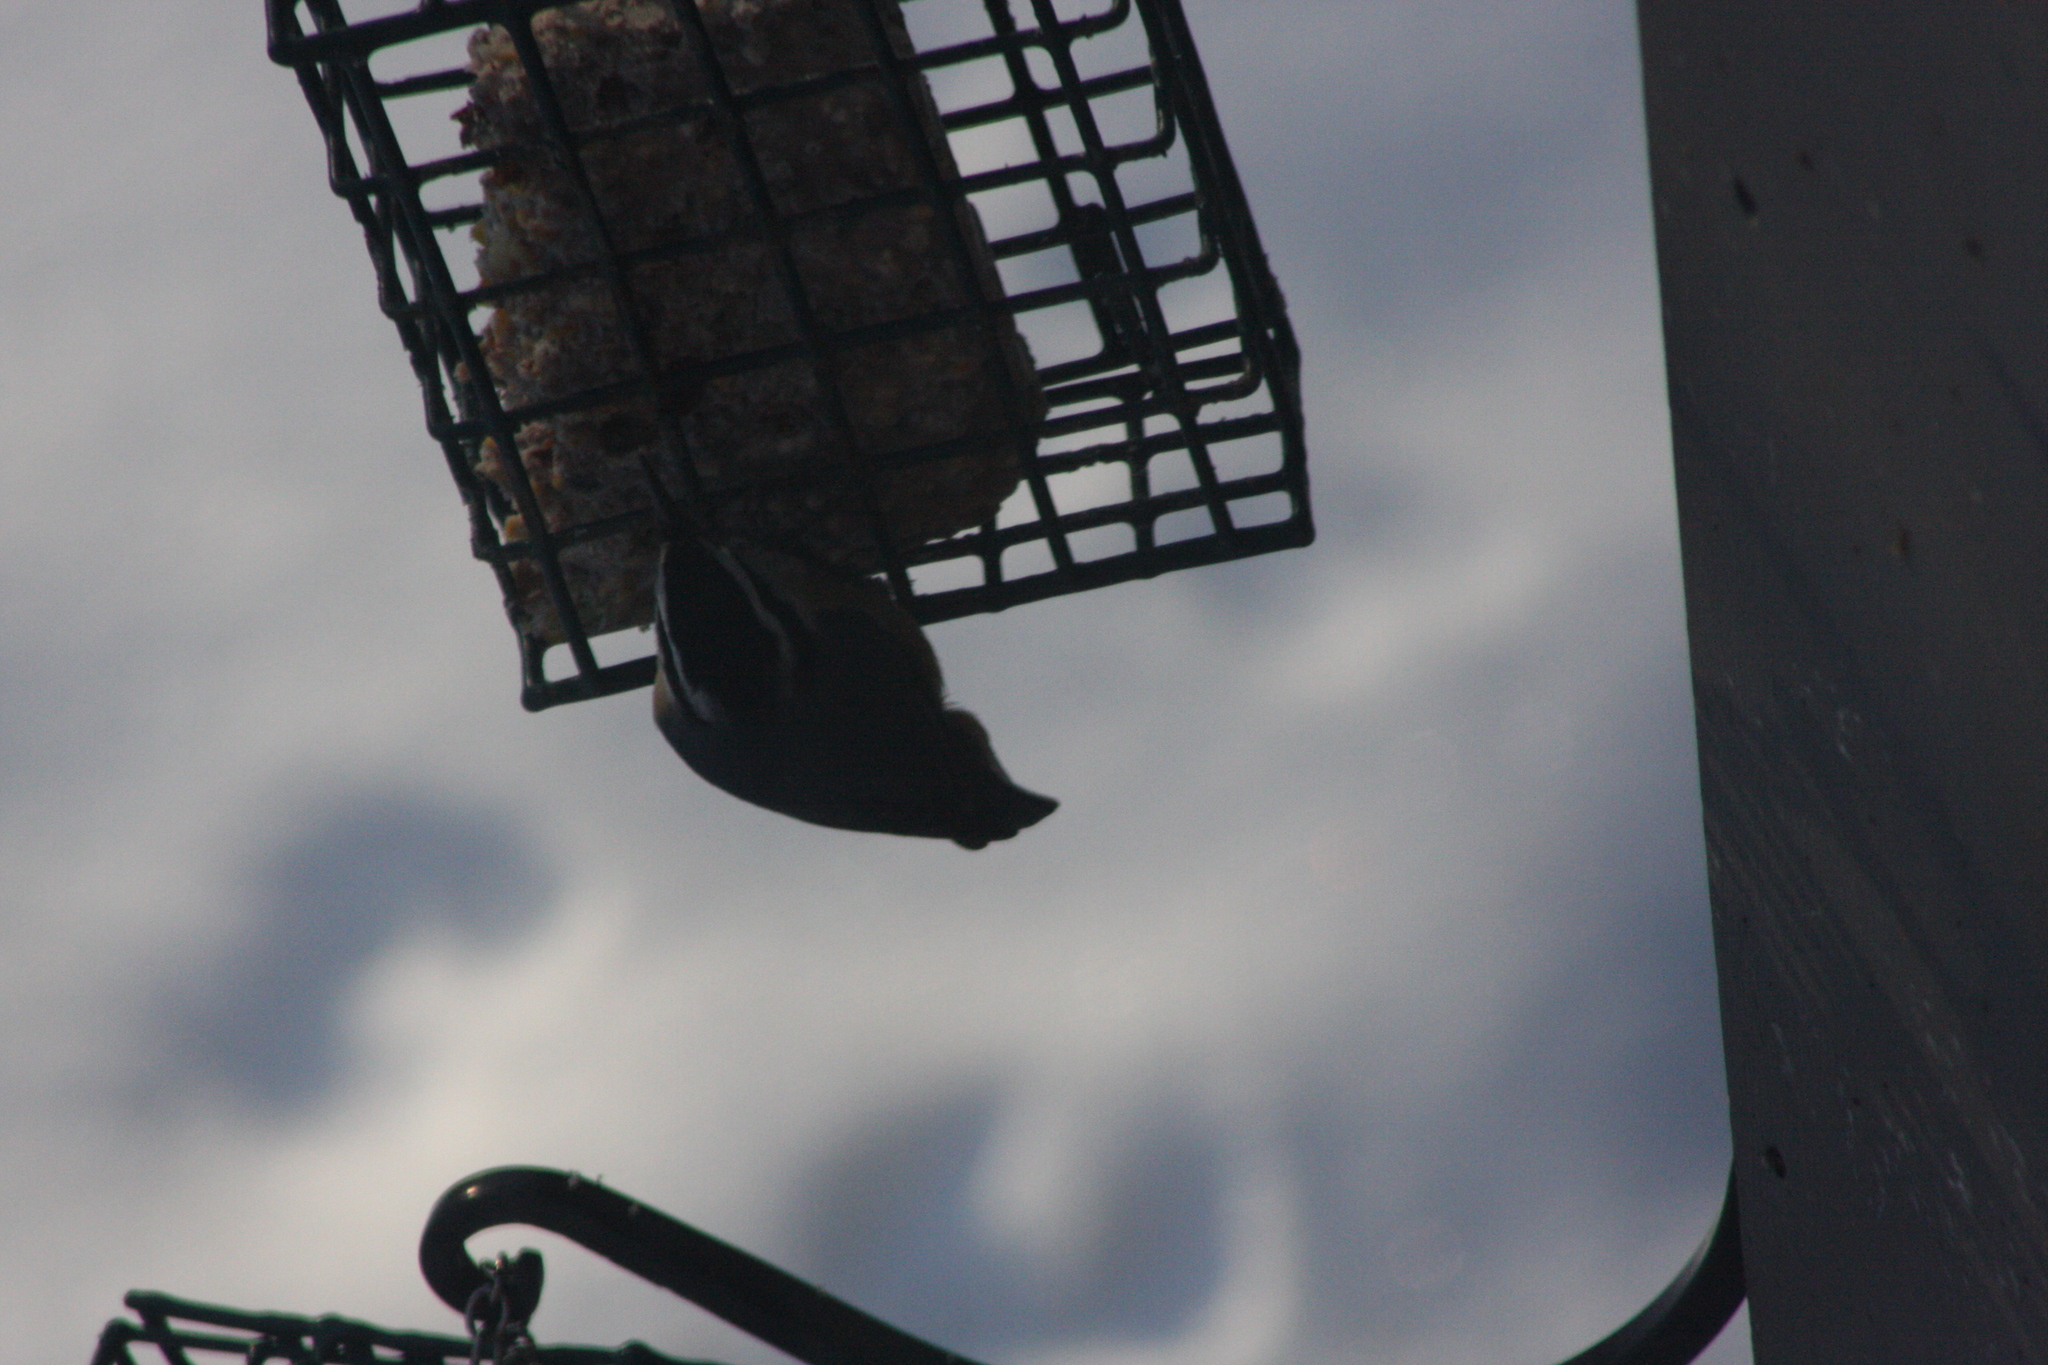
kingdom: Animalia
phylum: Chordata
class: Aves
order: Passeriformes
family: Sittidae
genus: Sitta
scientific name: Sitta canadensis
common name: Red-breasted nuthatch
